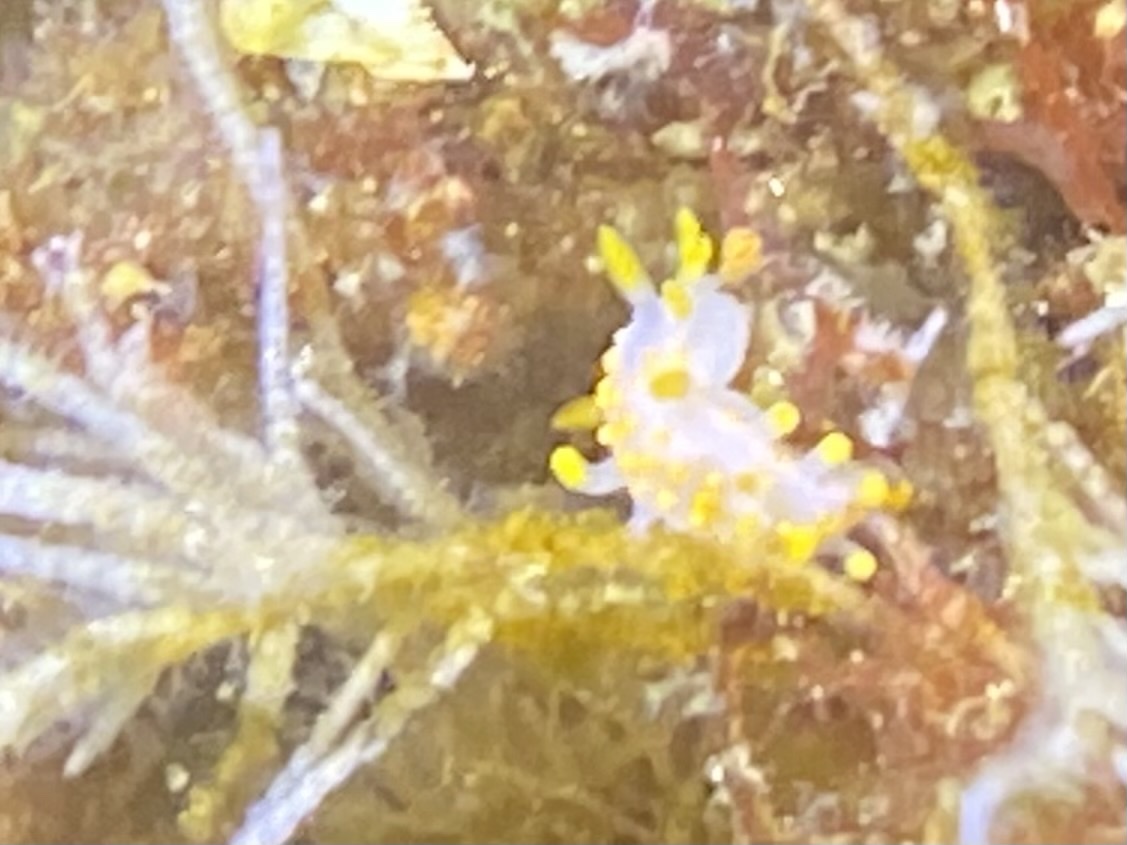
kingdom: Animalia
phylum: Mollusca
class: Gastropoda
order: Nudibranchia
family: Polyceridae
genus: Limacia
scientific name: Limacia clavigera
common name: Orange-clubbed sea slug
